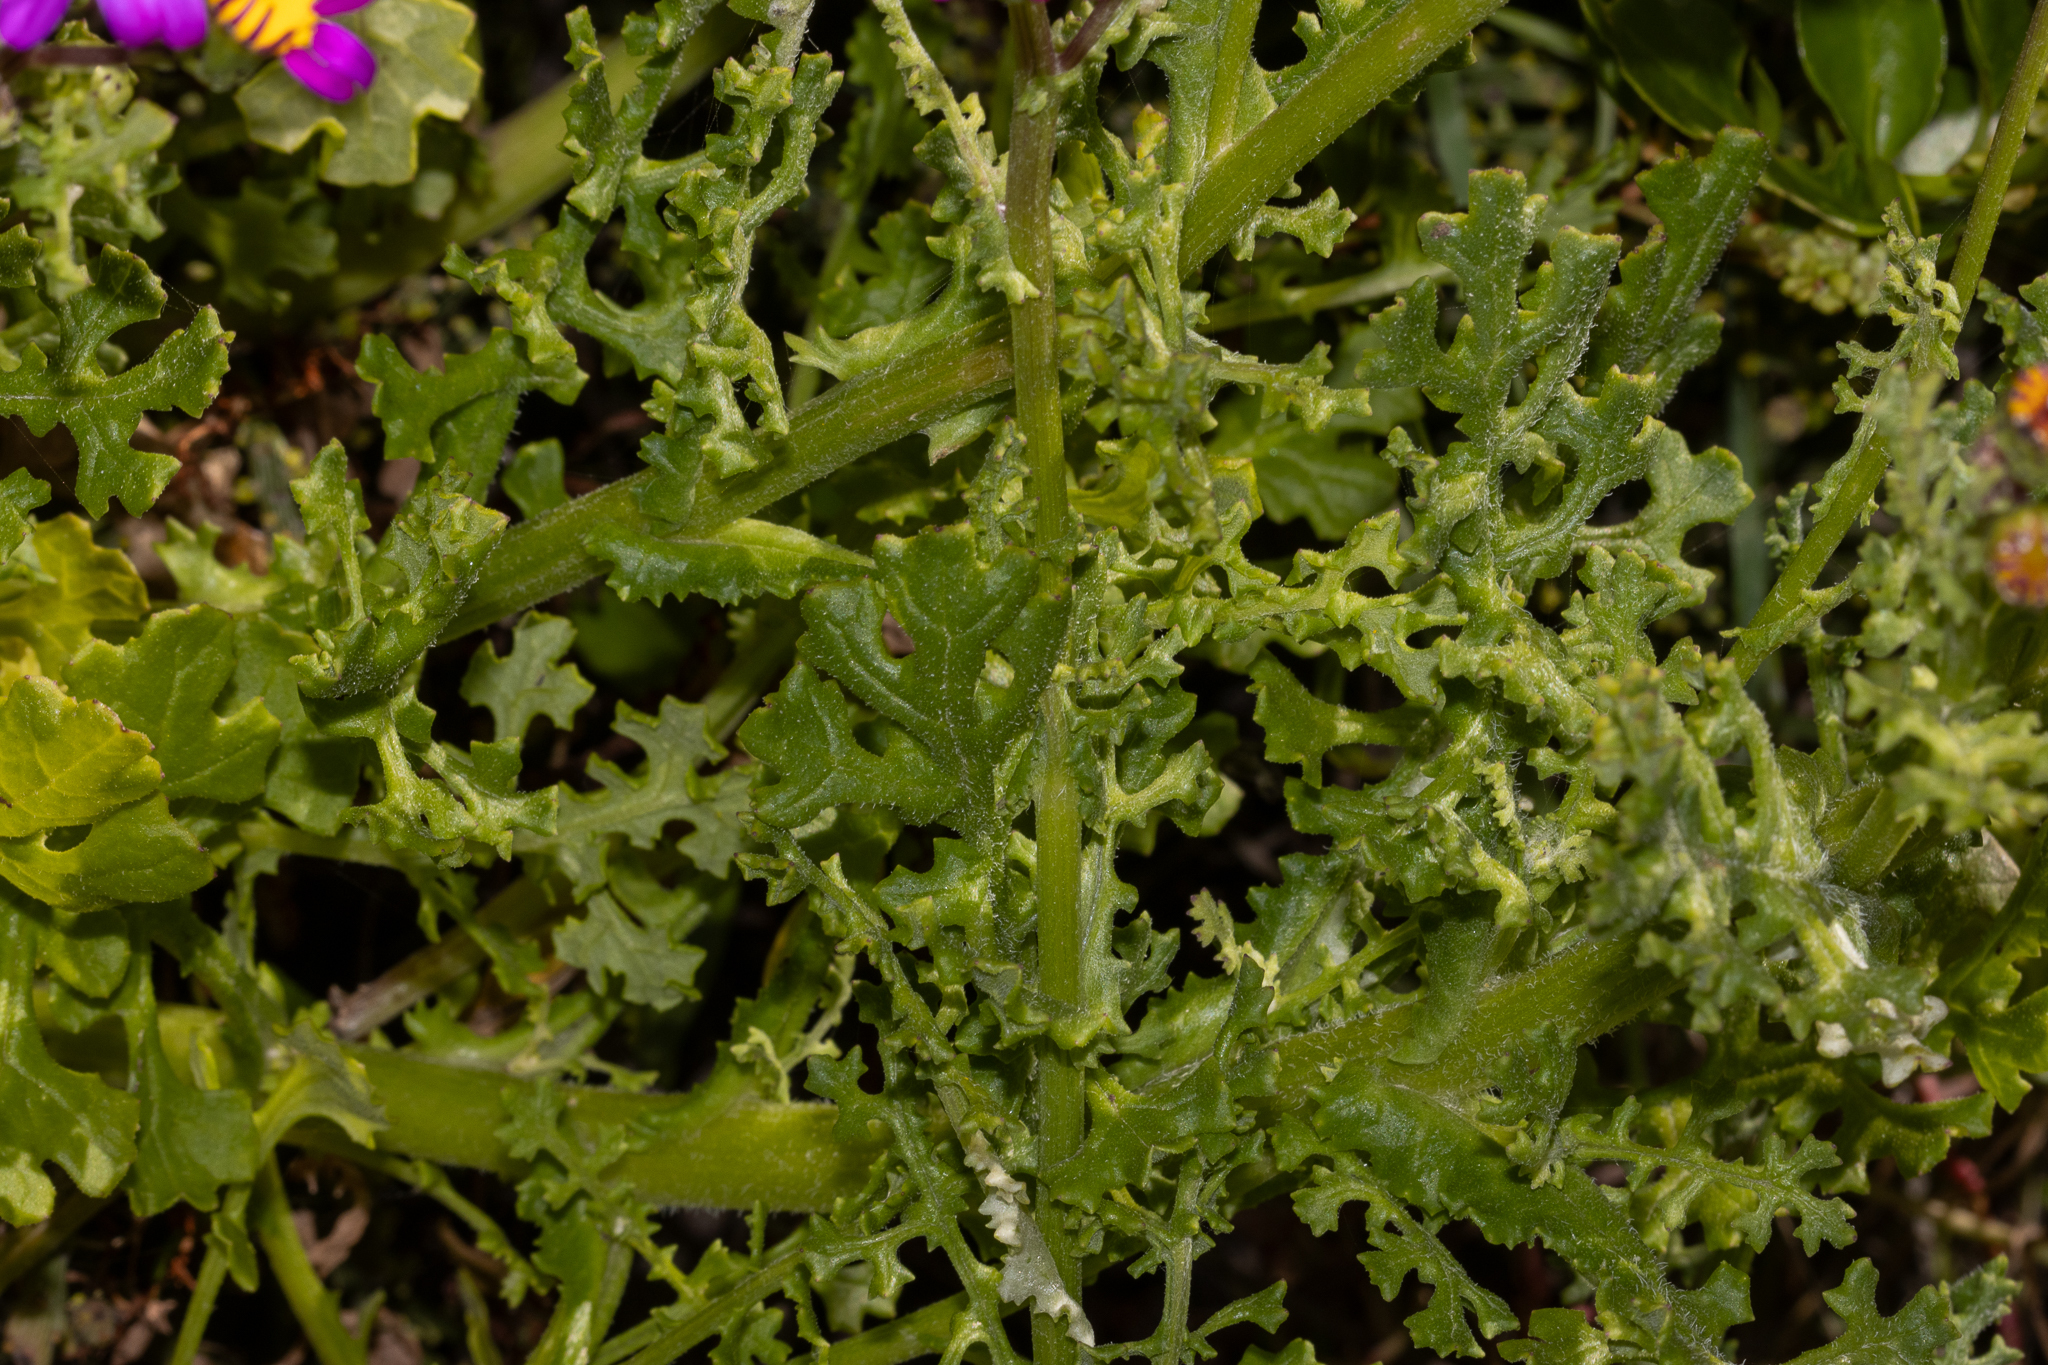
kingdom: Plantae
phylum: Tracheophyta
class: Magnoliopsida
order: Asterales
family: Asteraceae
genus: Senecio
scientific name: Senecio elegans
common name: Purple groundsel
